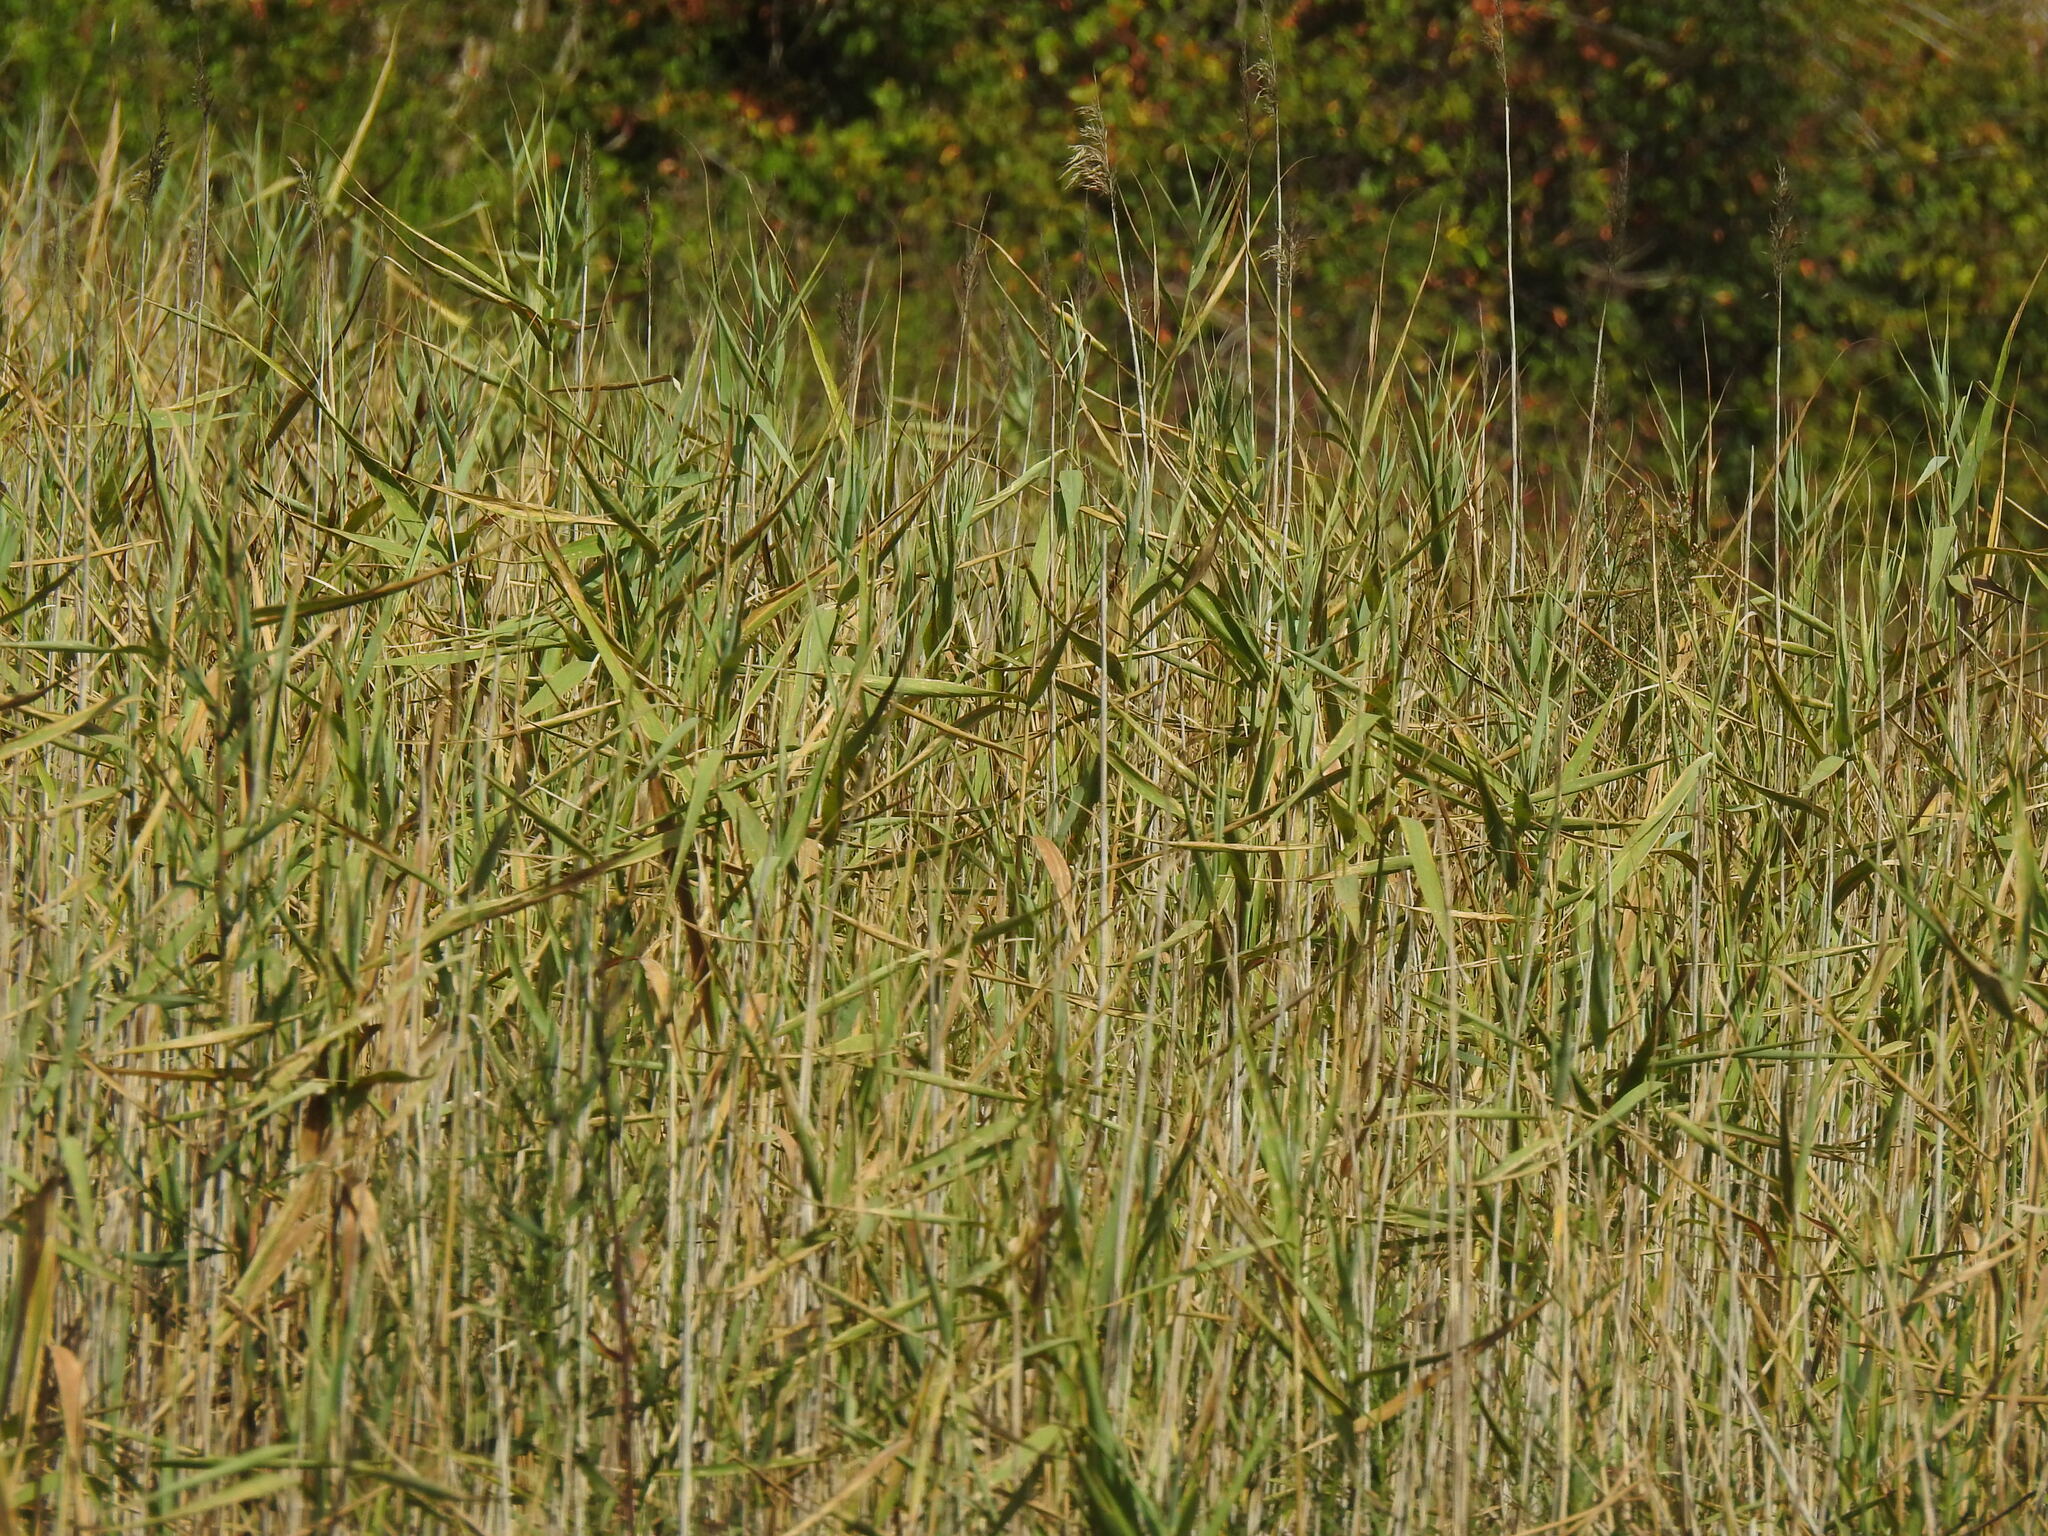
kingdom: Plantae
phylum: Tracheophyta
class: Liliopsida
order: Poales
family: Poaceae
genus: Phragmites
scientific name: Phragmites australis
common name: Common reed
